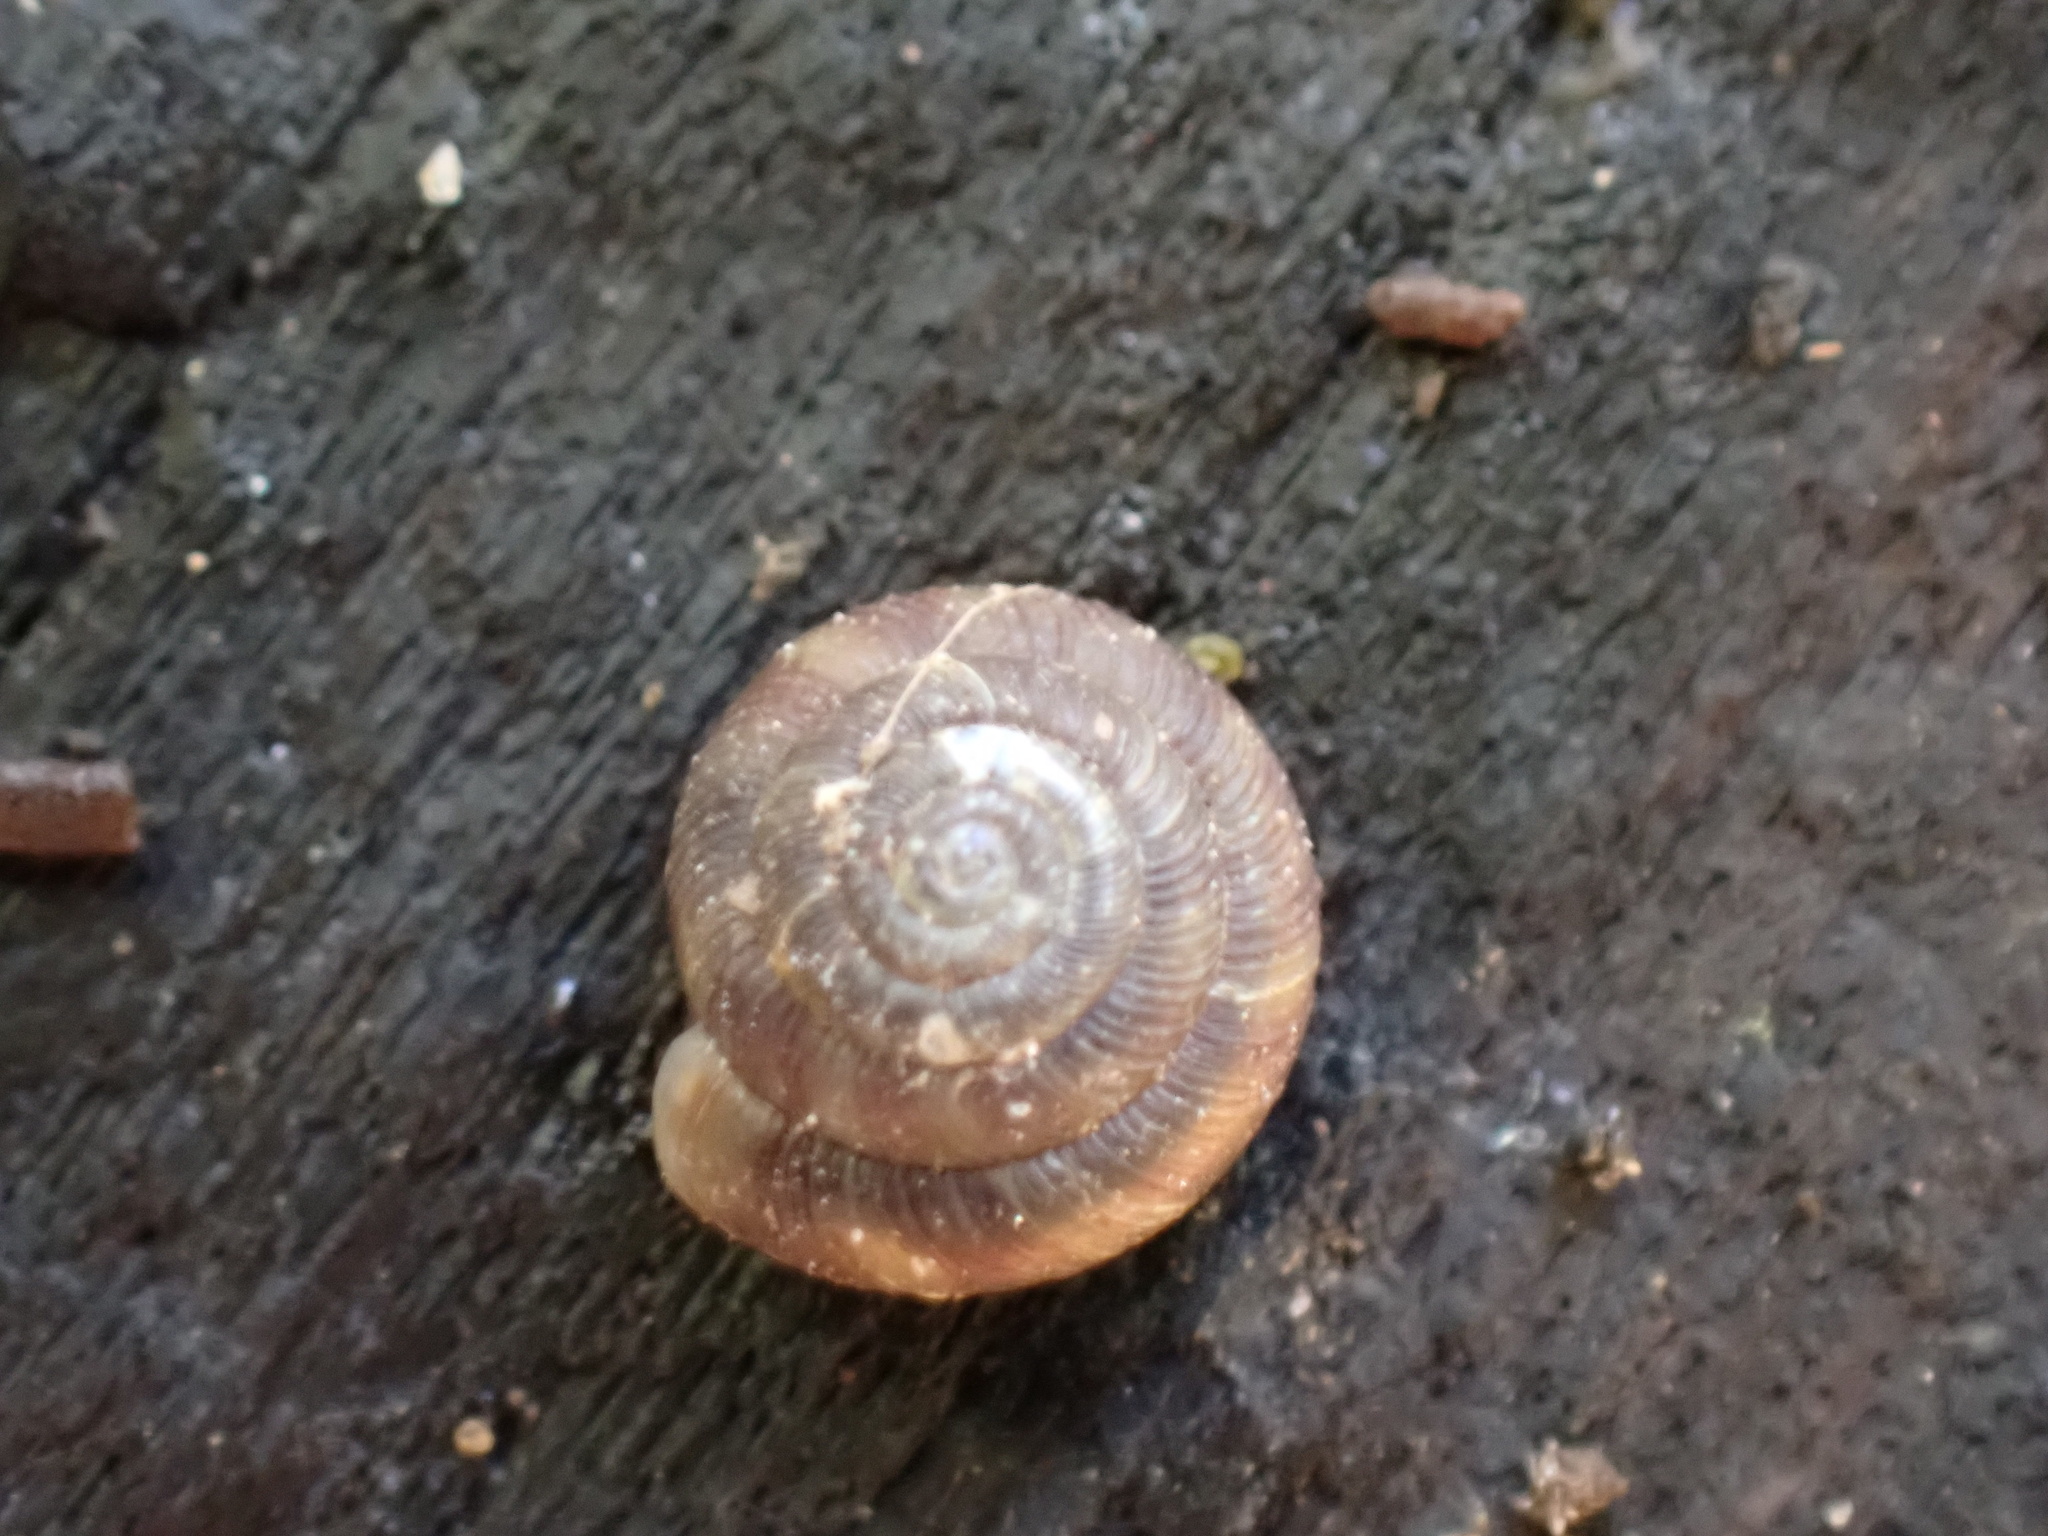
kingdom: Animalia
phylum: Mollusca
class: Gastropoda
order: Stylommatophora
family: Discidae
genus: Discus
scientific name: Discus rotundatus
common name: Rounded snail
